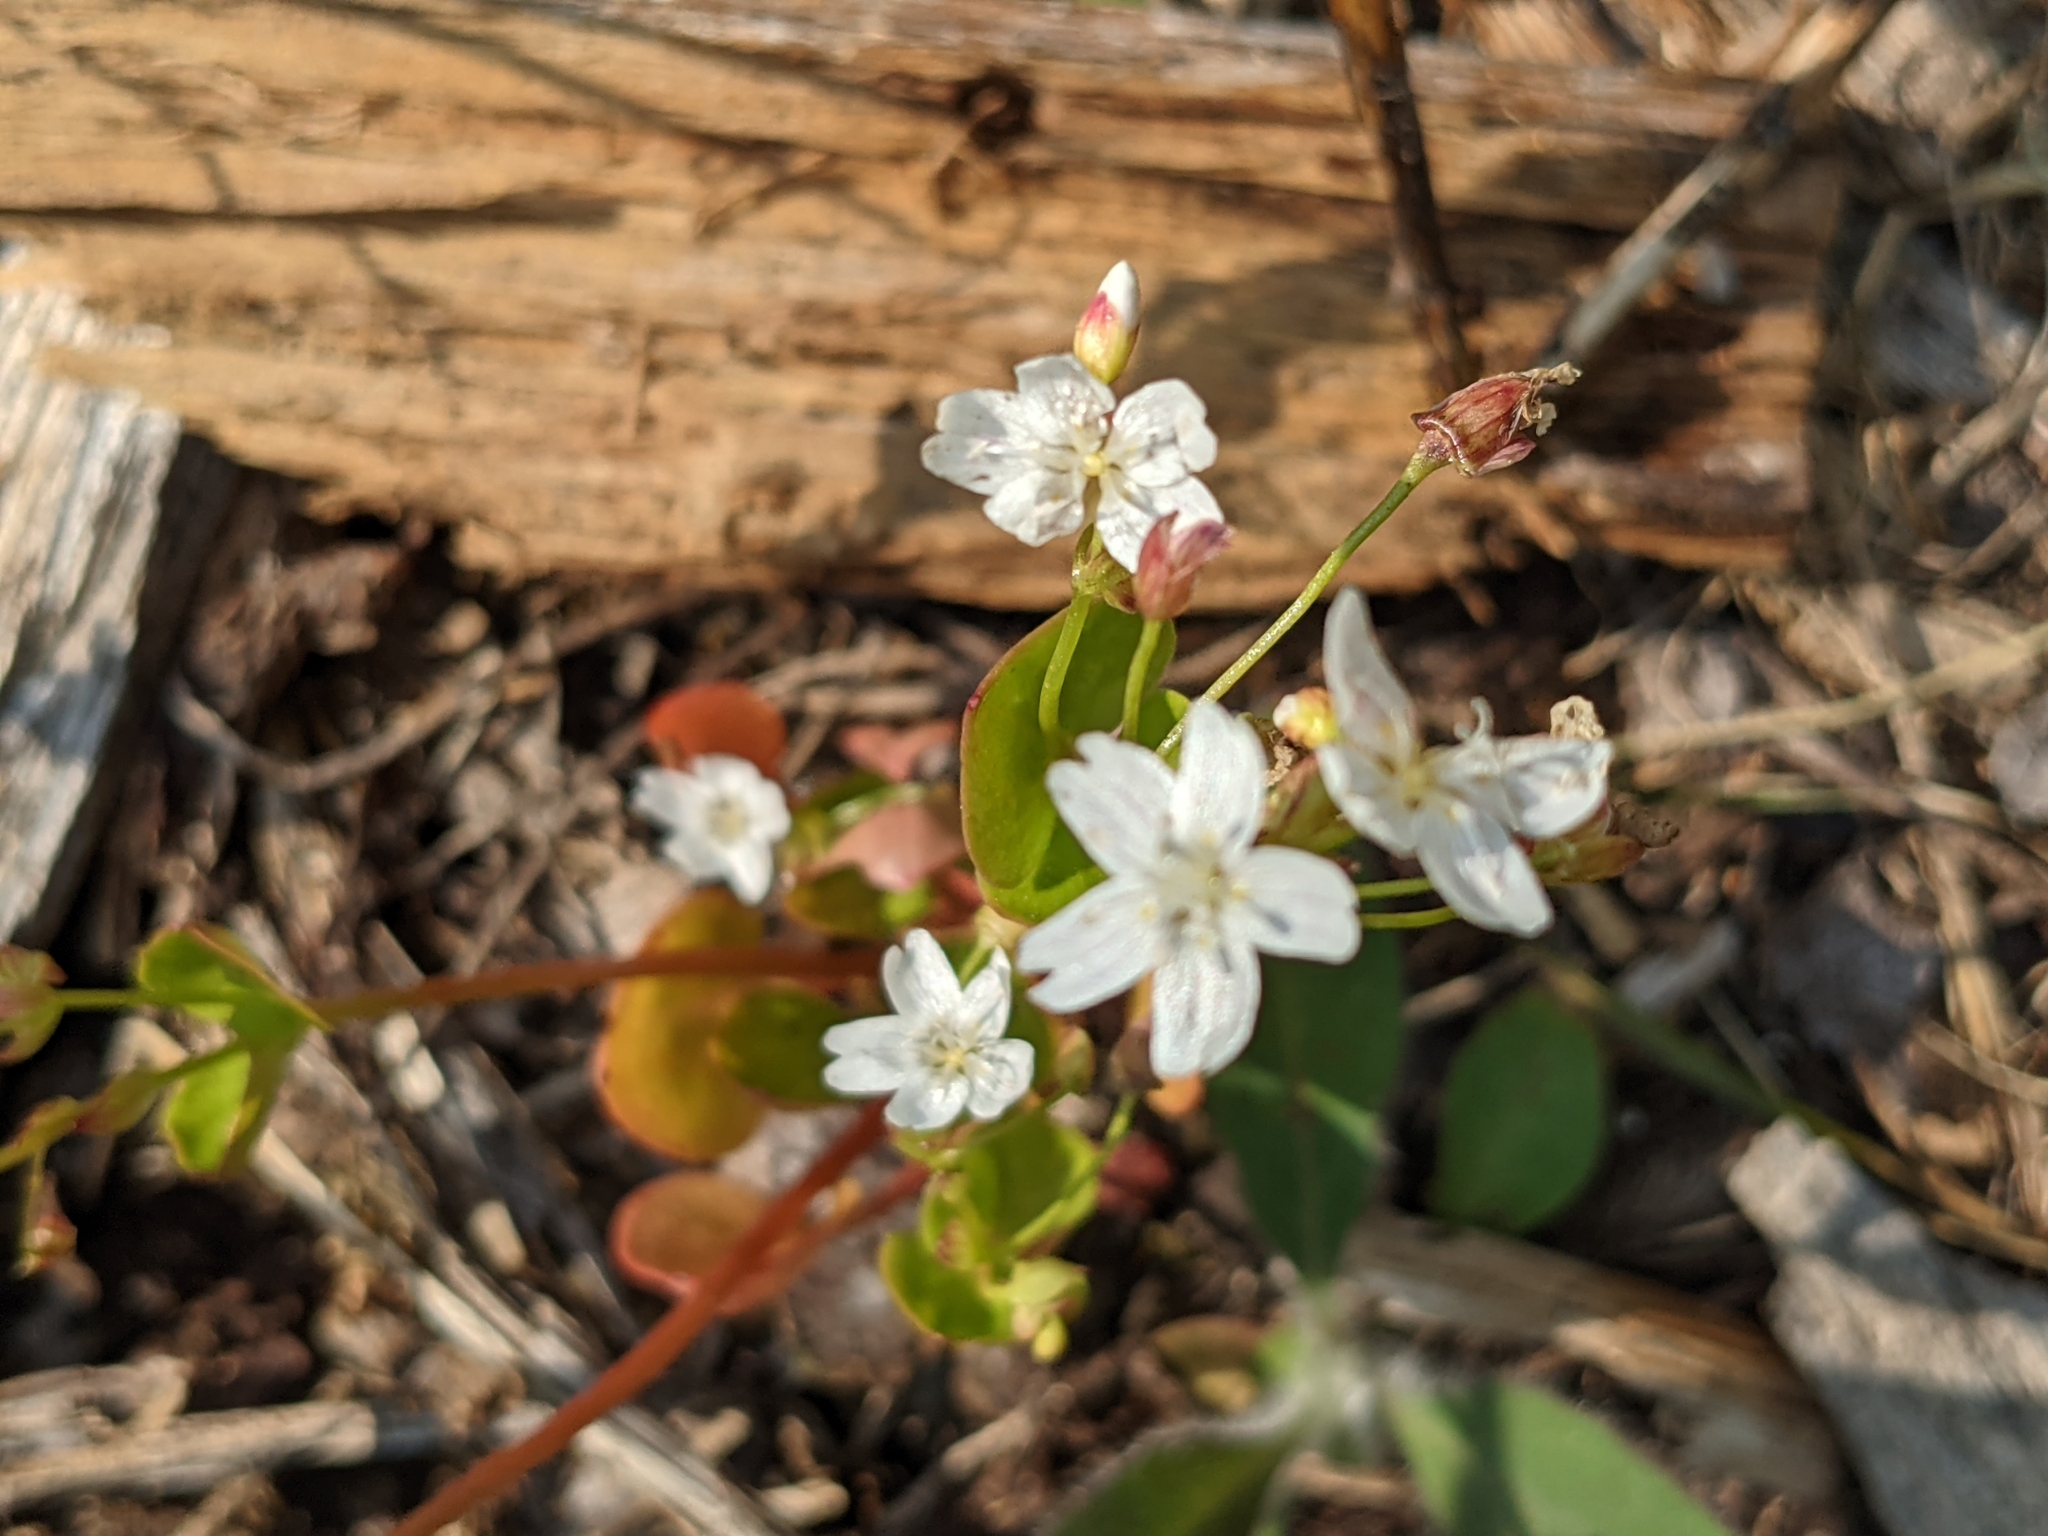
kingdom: Plantae
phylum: Tracheophyta
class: Magnoliopsida
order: Caryophyllales
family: Montiaceae
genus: Claytonia
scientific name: Claytonia sibirica
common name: Pink purslane
